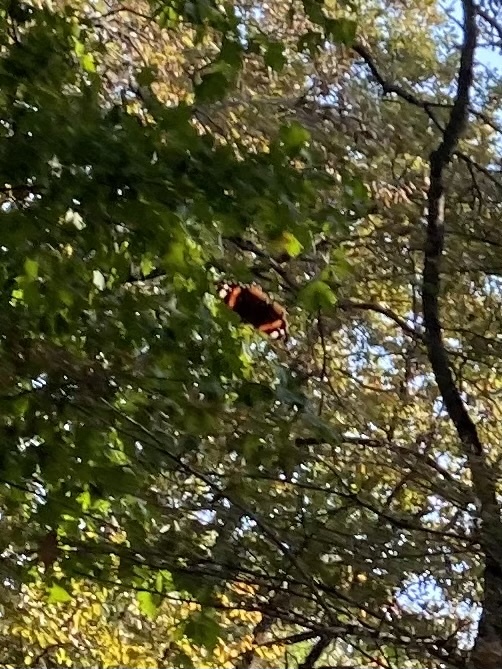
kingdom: Animalia
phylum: Arthropoda
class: Insecta
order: Lepidoptera
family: Nymphalidae
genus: Vanessa
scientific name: Vanessa atalanta
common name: Red admiral
